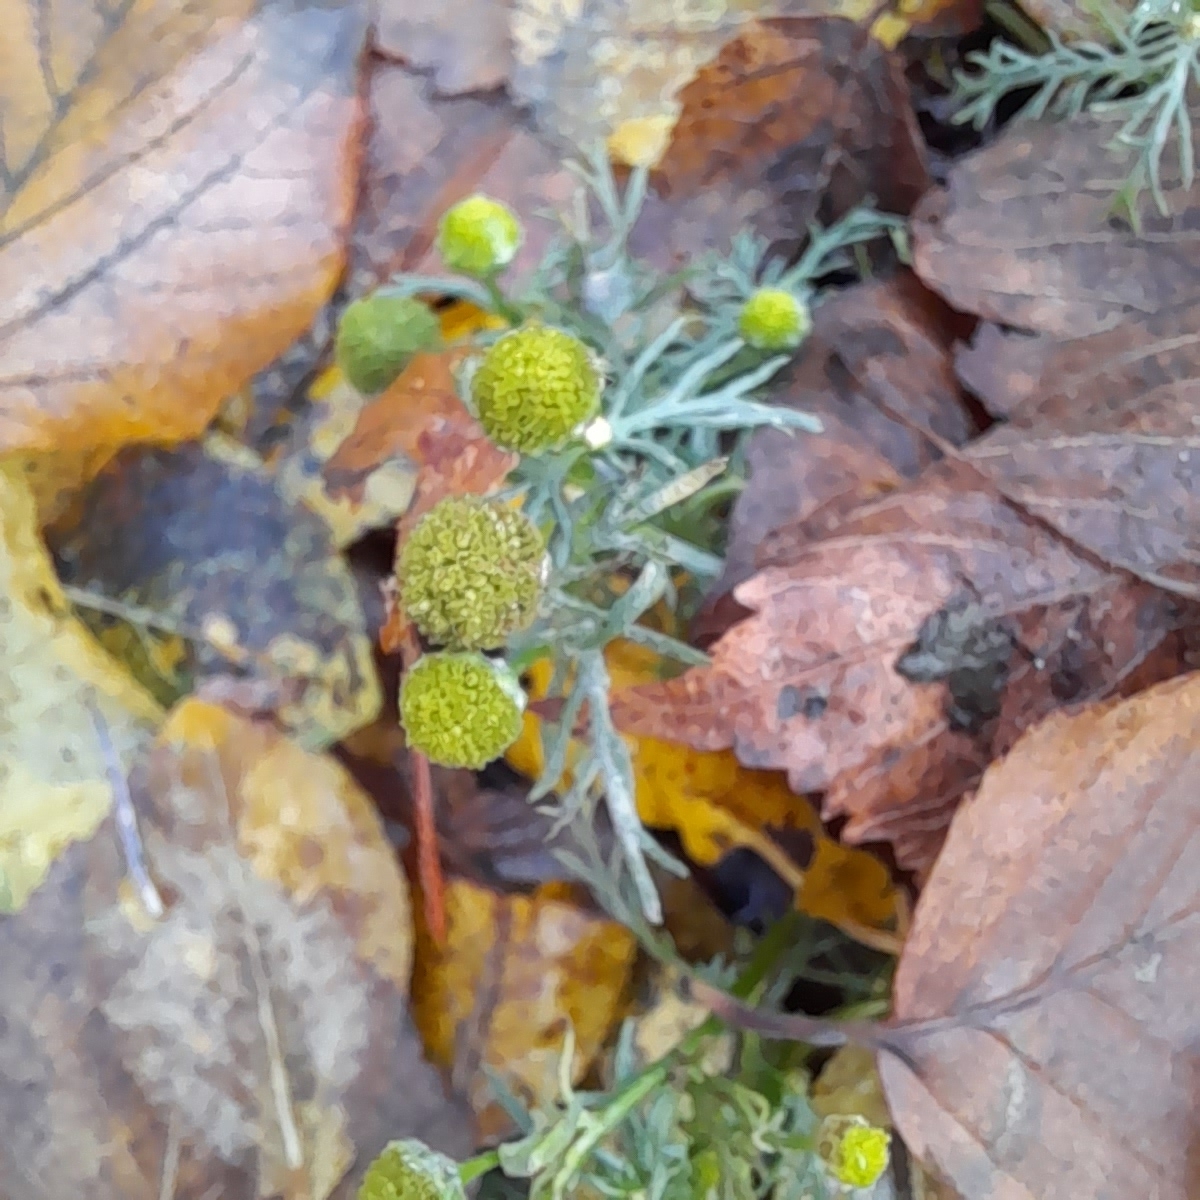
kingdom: Plantae
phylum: Tracheophyta
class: Magnoliopsida
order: Asterales
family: Asteraceae
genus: Matricaria
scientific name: Matricaria discoidea
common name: Disc mayweed
